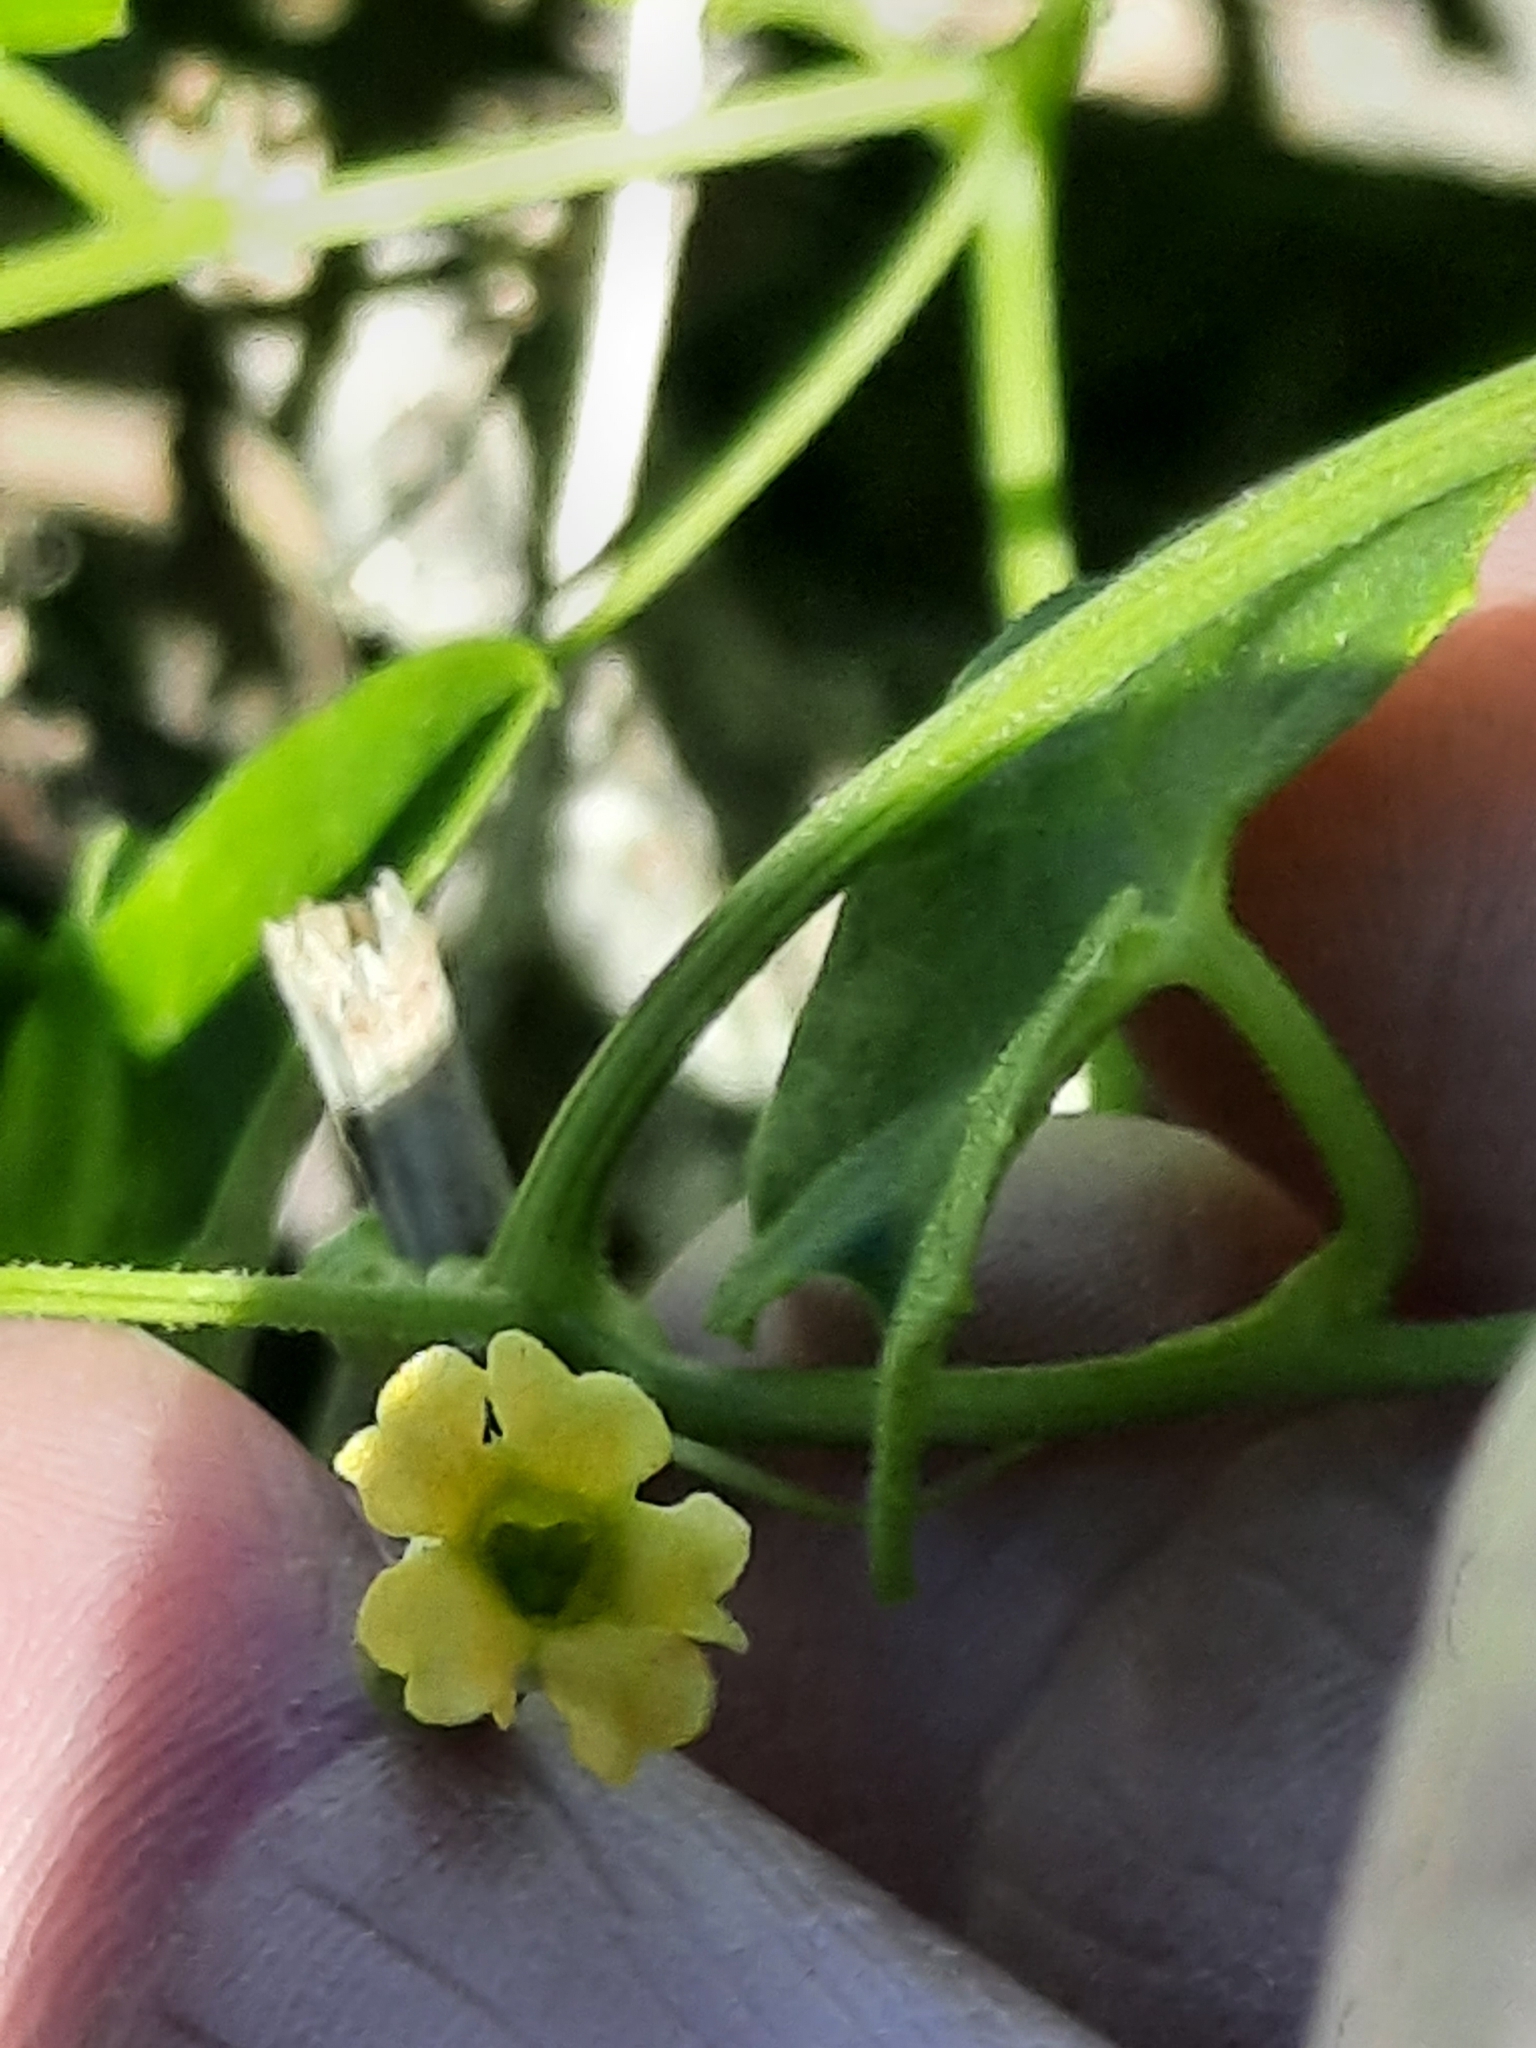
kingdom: Plantae
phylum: Tracheophyta
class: Magnoliopsida
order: Cucurbitales
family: Cucurbitaceae
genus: Melothria
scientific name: Melothria pendula
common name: Creeping-cucumber
